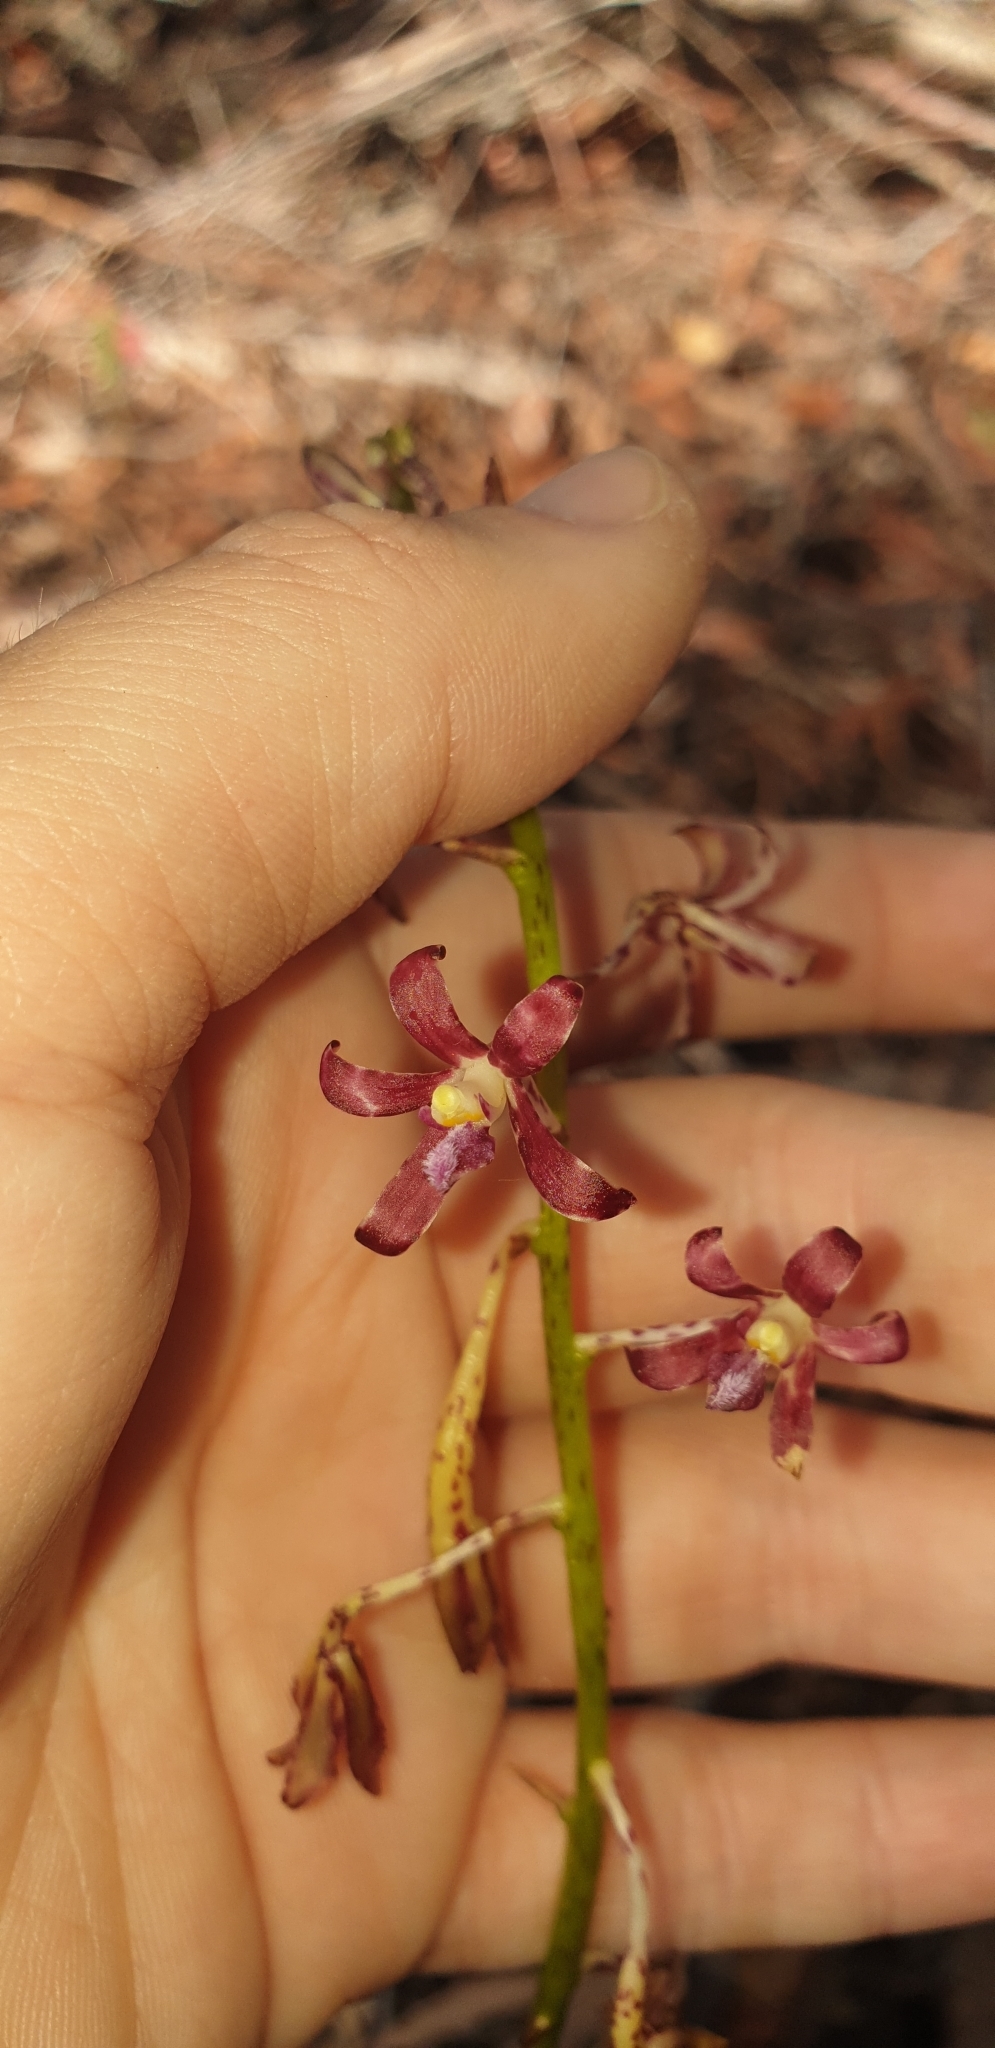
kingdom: Plantae
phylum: Tracheophyta
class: Liliopsida
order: Asparagales
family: Orchidaceae
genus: Dipodium
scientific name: Dipodium variegatum
